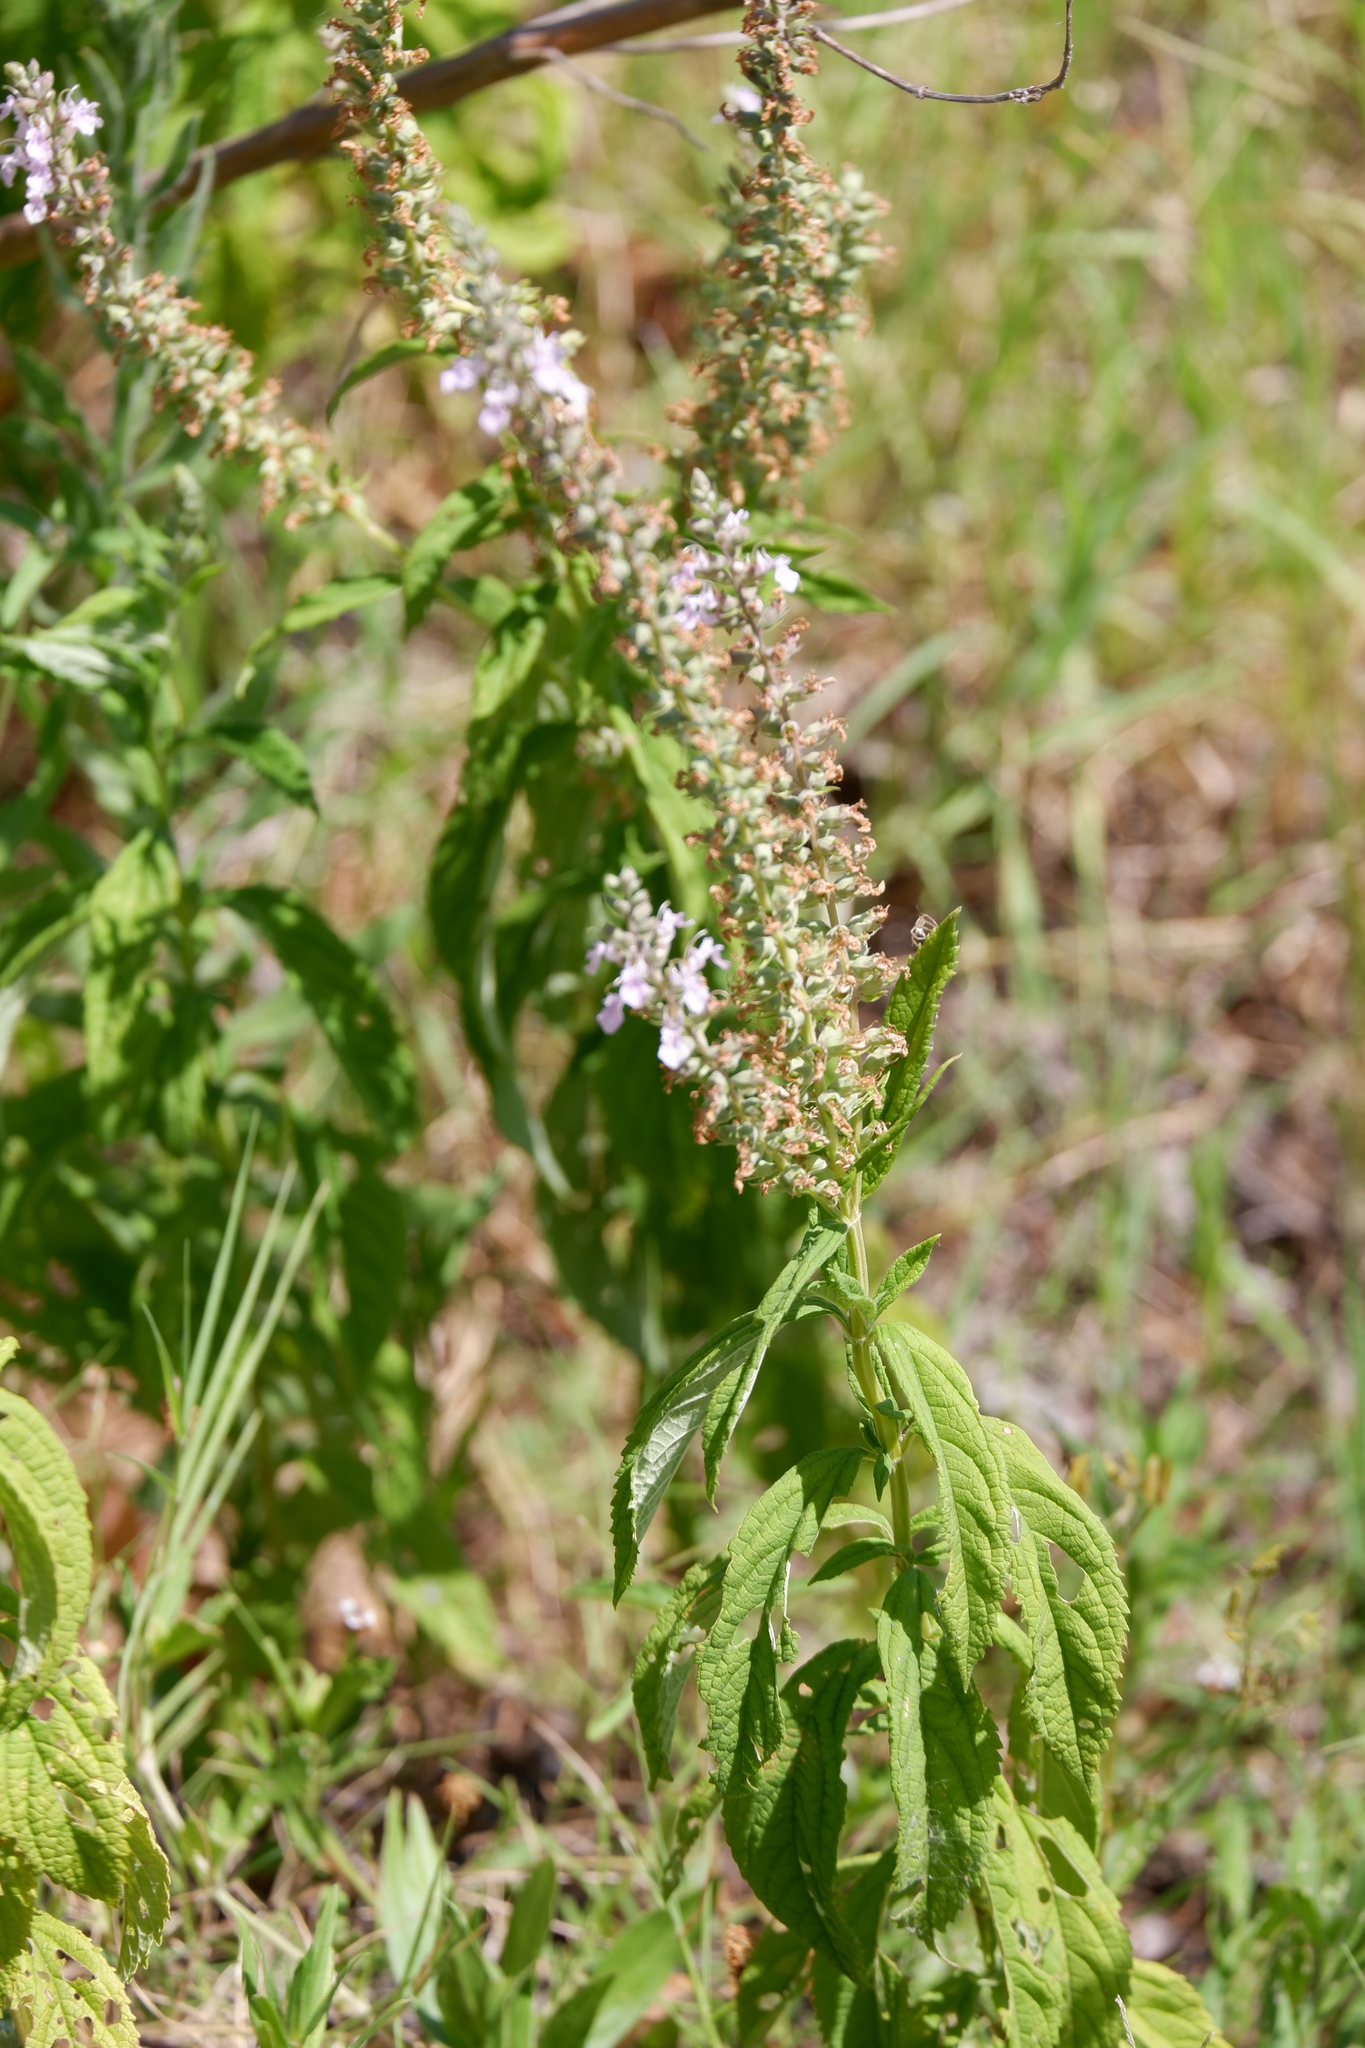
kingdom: Plantae
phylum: Tracheophyta
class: Magnoliopsida
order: Lamiales
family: Lamiaceae
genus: Teucrium
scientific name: Teucrium canadense
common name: American germander
